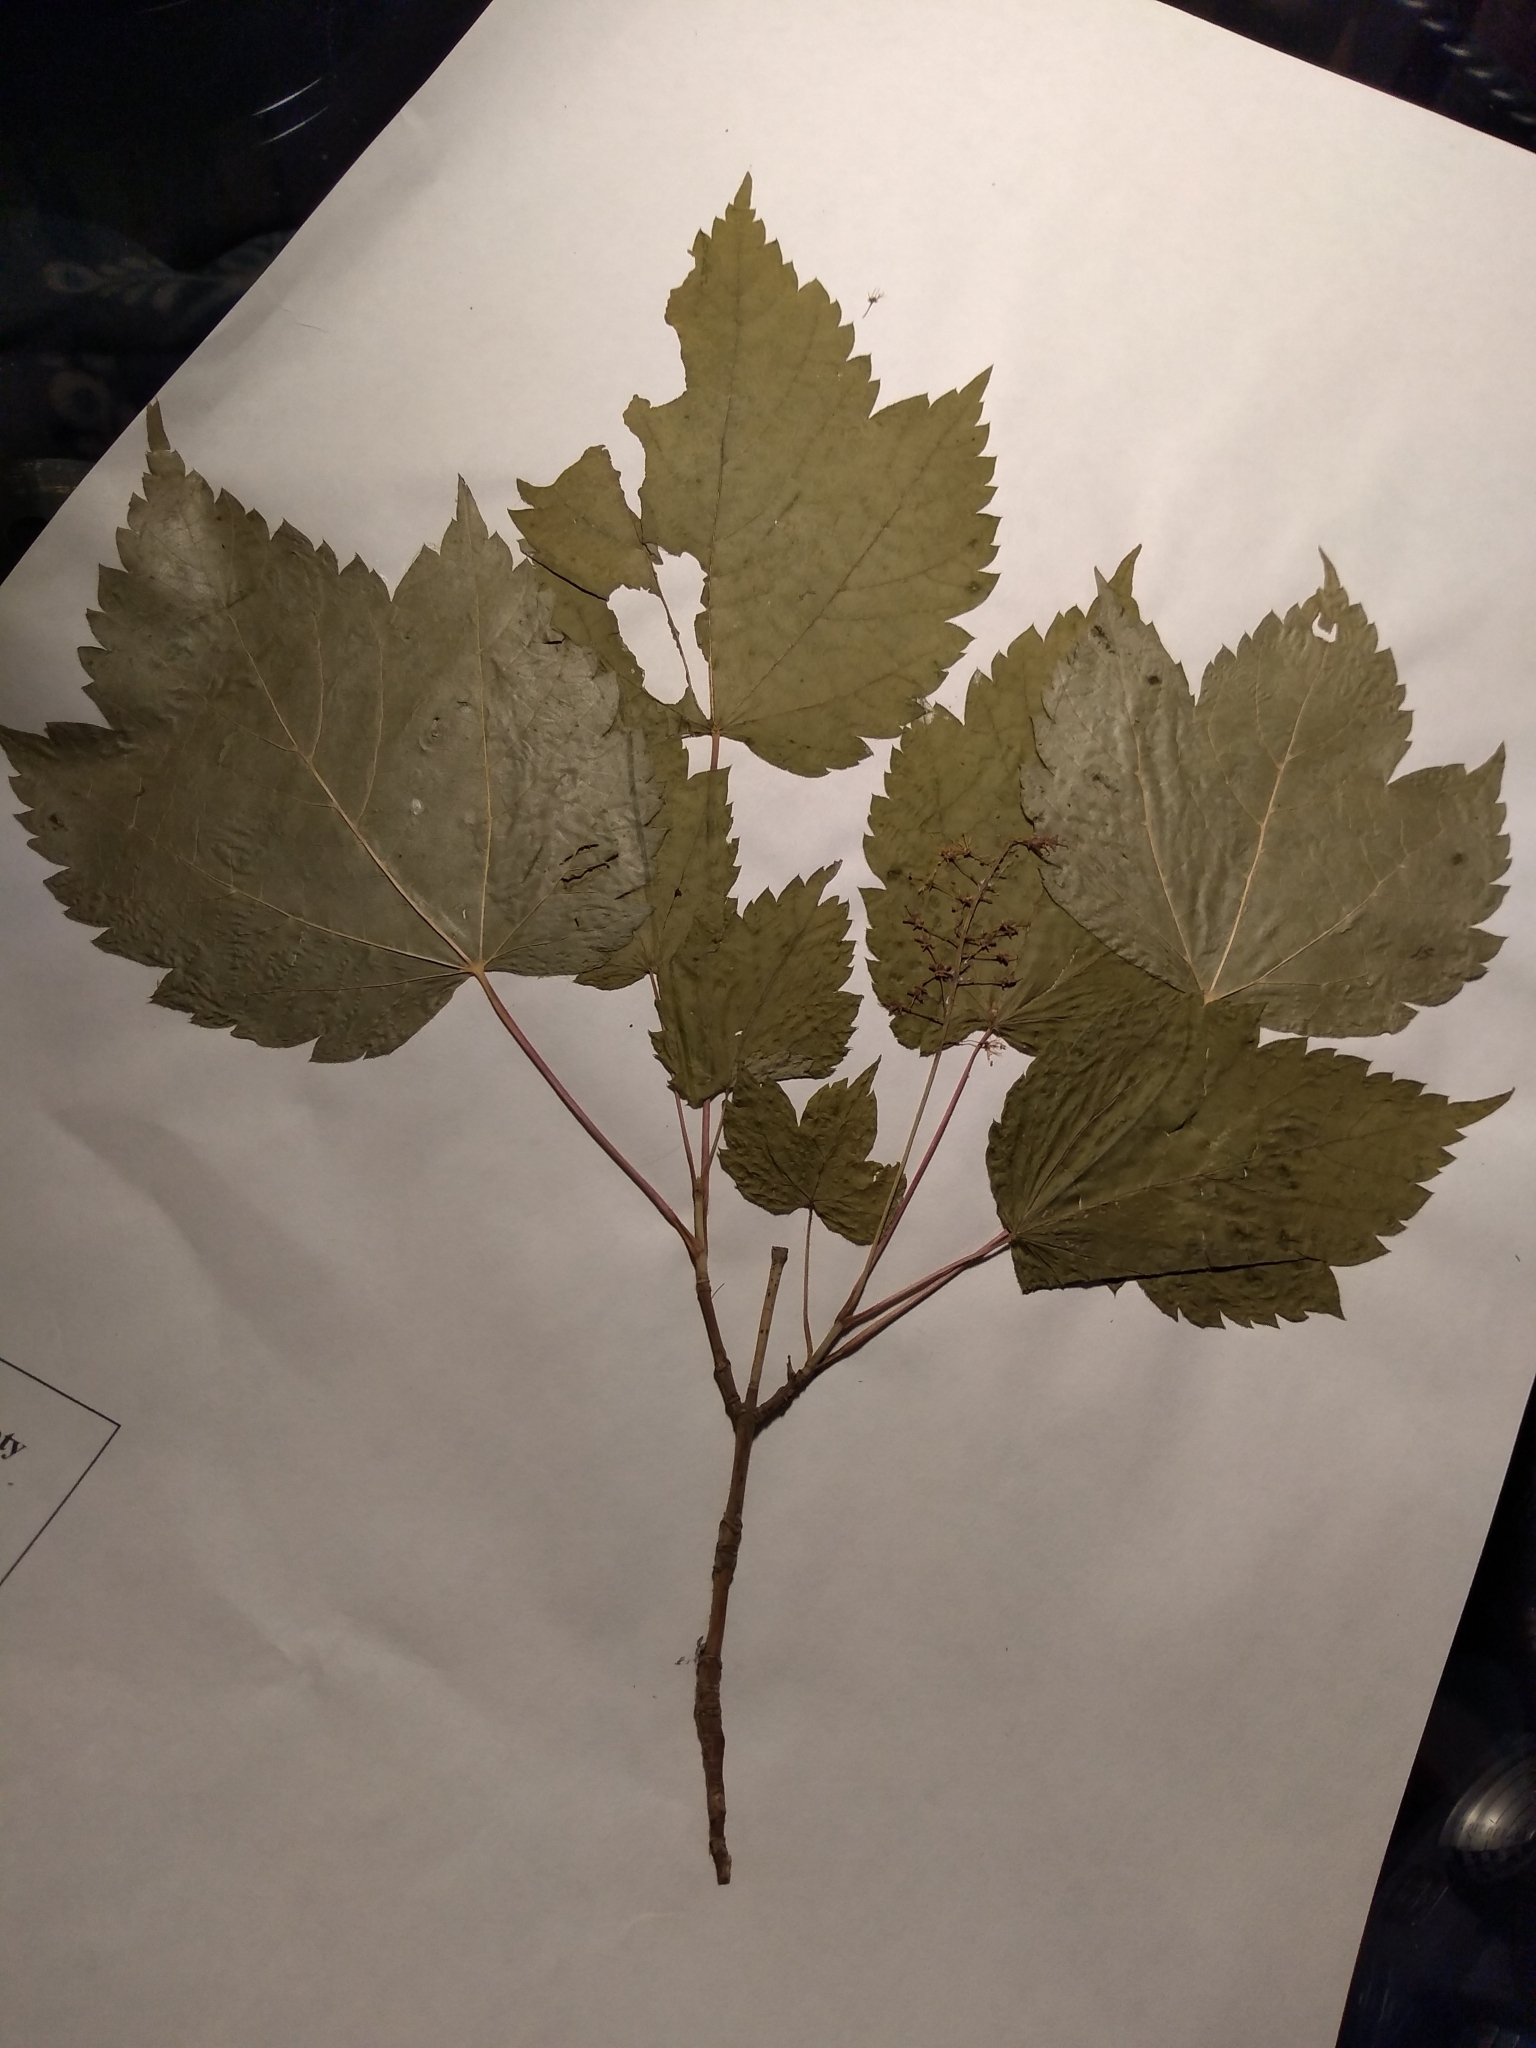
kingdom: Plantae
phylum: Tracheophyta
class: Magnoliopsida
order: Sapindales
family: Sapindaceae
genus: Acer
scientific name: Acer spicatum
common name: Mountain maple
